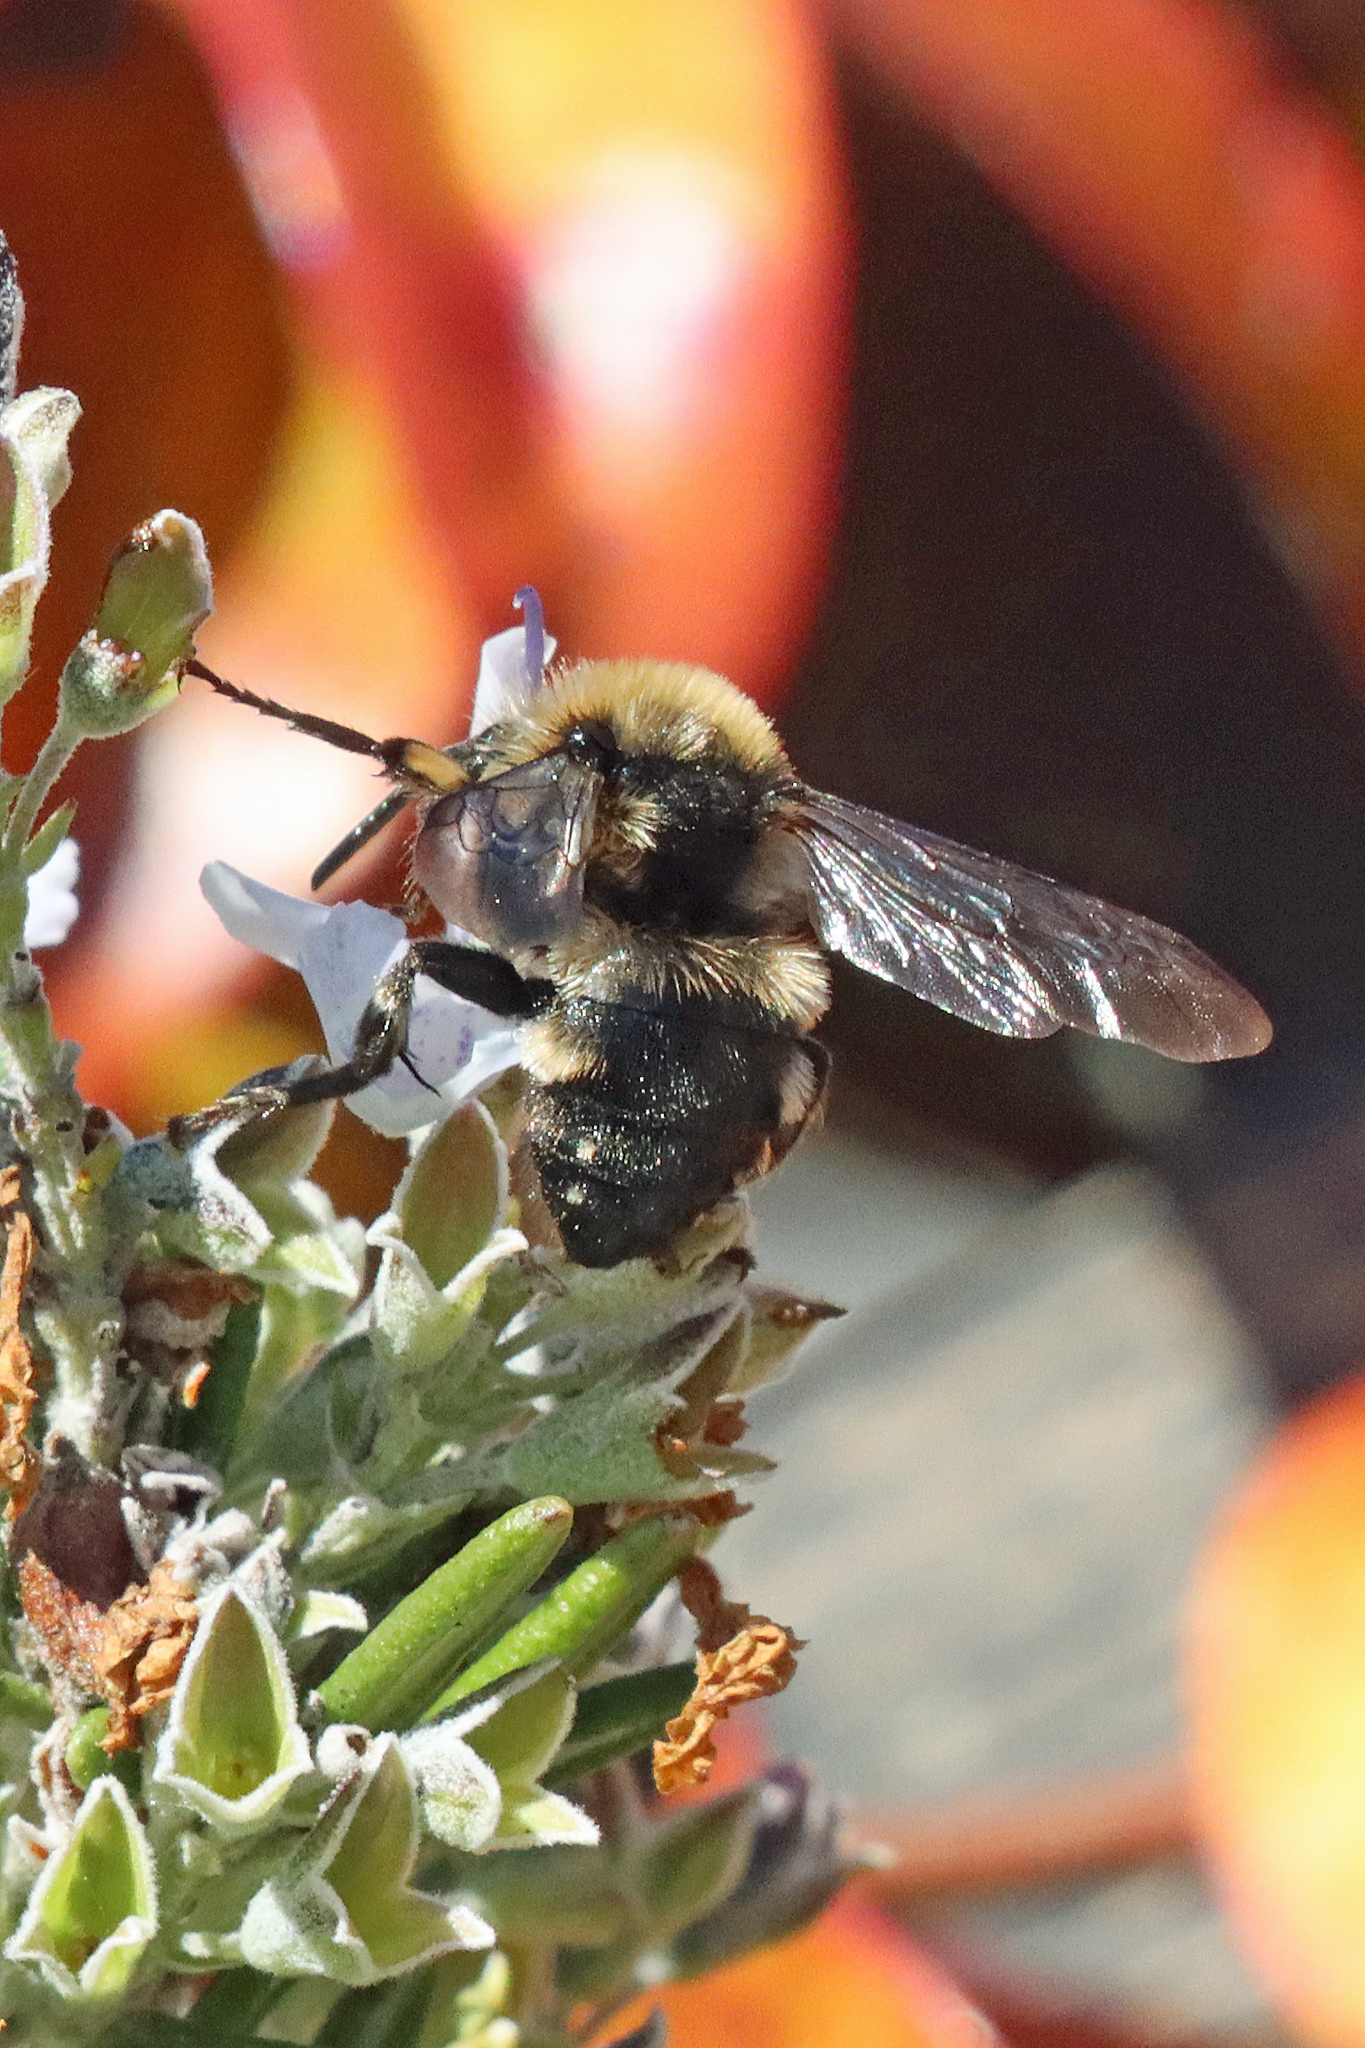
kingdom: Animalia
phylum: Arthropoda
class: Insecta
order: Hymenoptera
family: Apidae
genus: Melecta
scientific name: Melecta albifrons
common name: Common mourning bee
